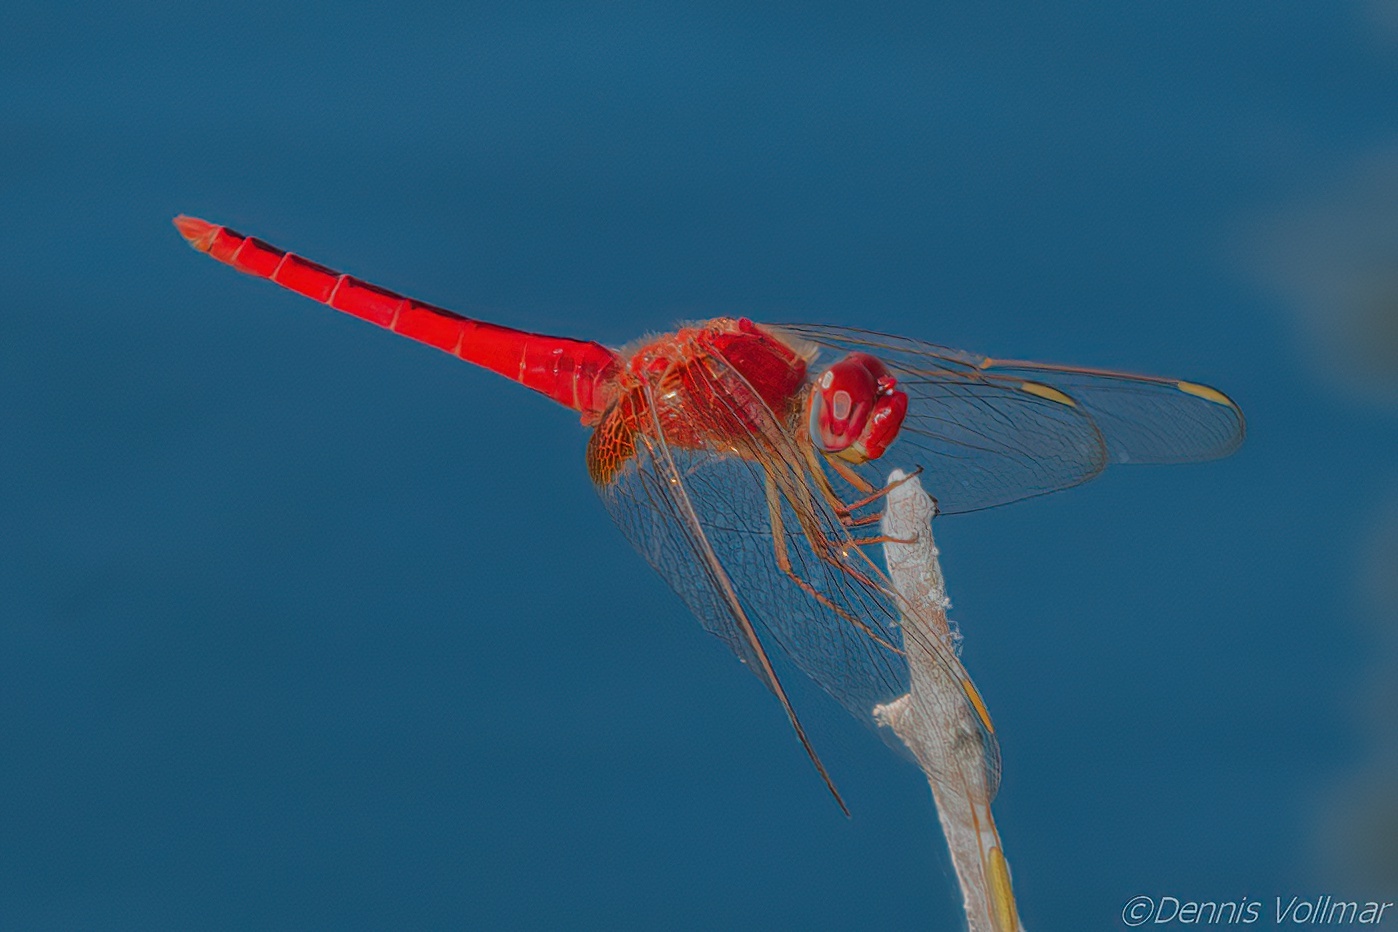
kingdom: Animalia
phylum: Arthropoda
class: Insecta
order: Odonata
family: Libellulidae
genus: Crocothemis
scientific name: Crocothemis servilia
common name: Scarlet skimmer
